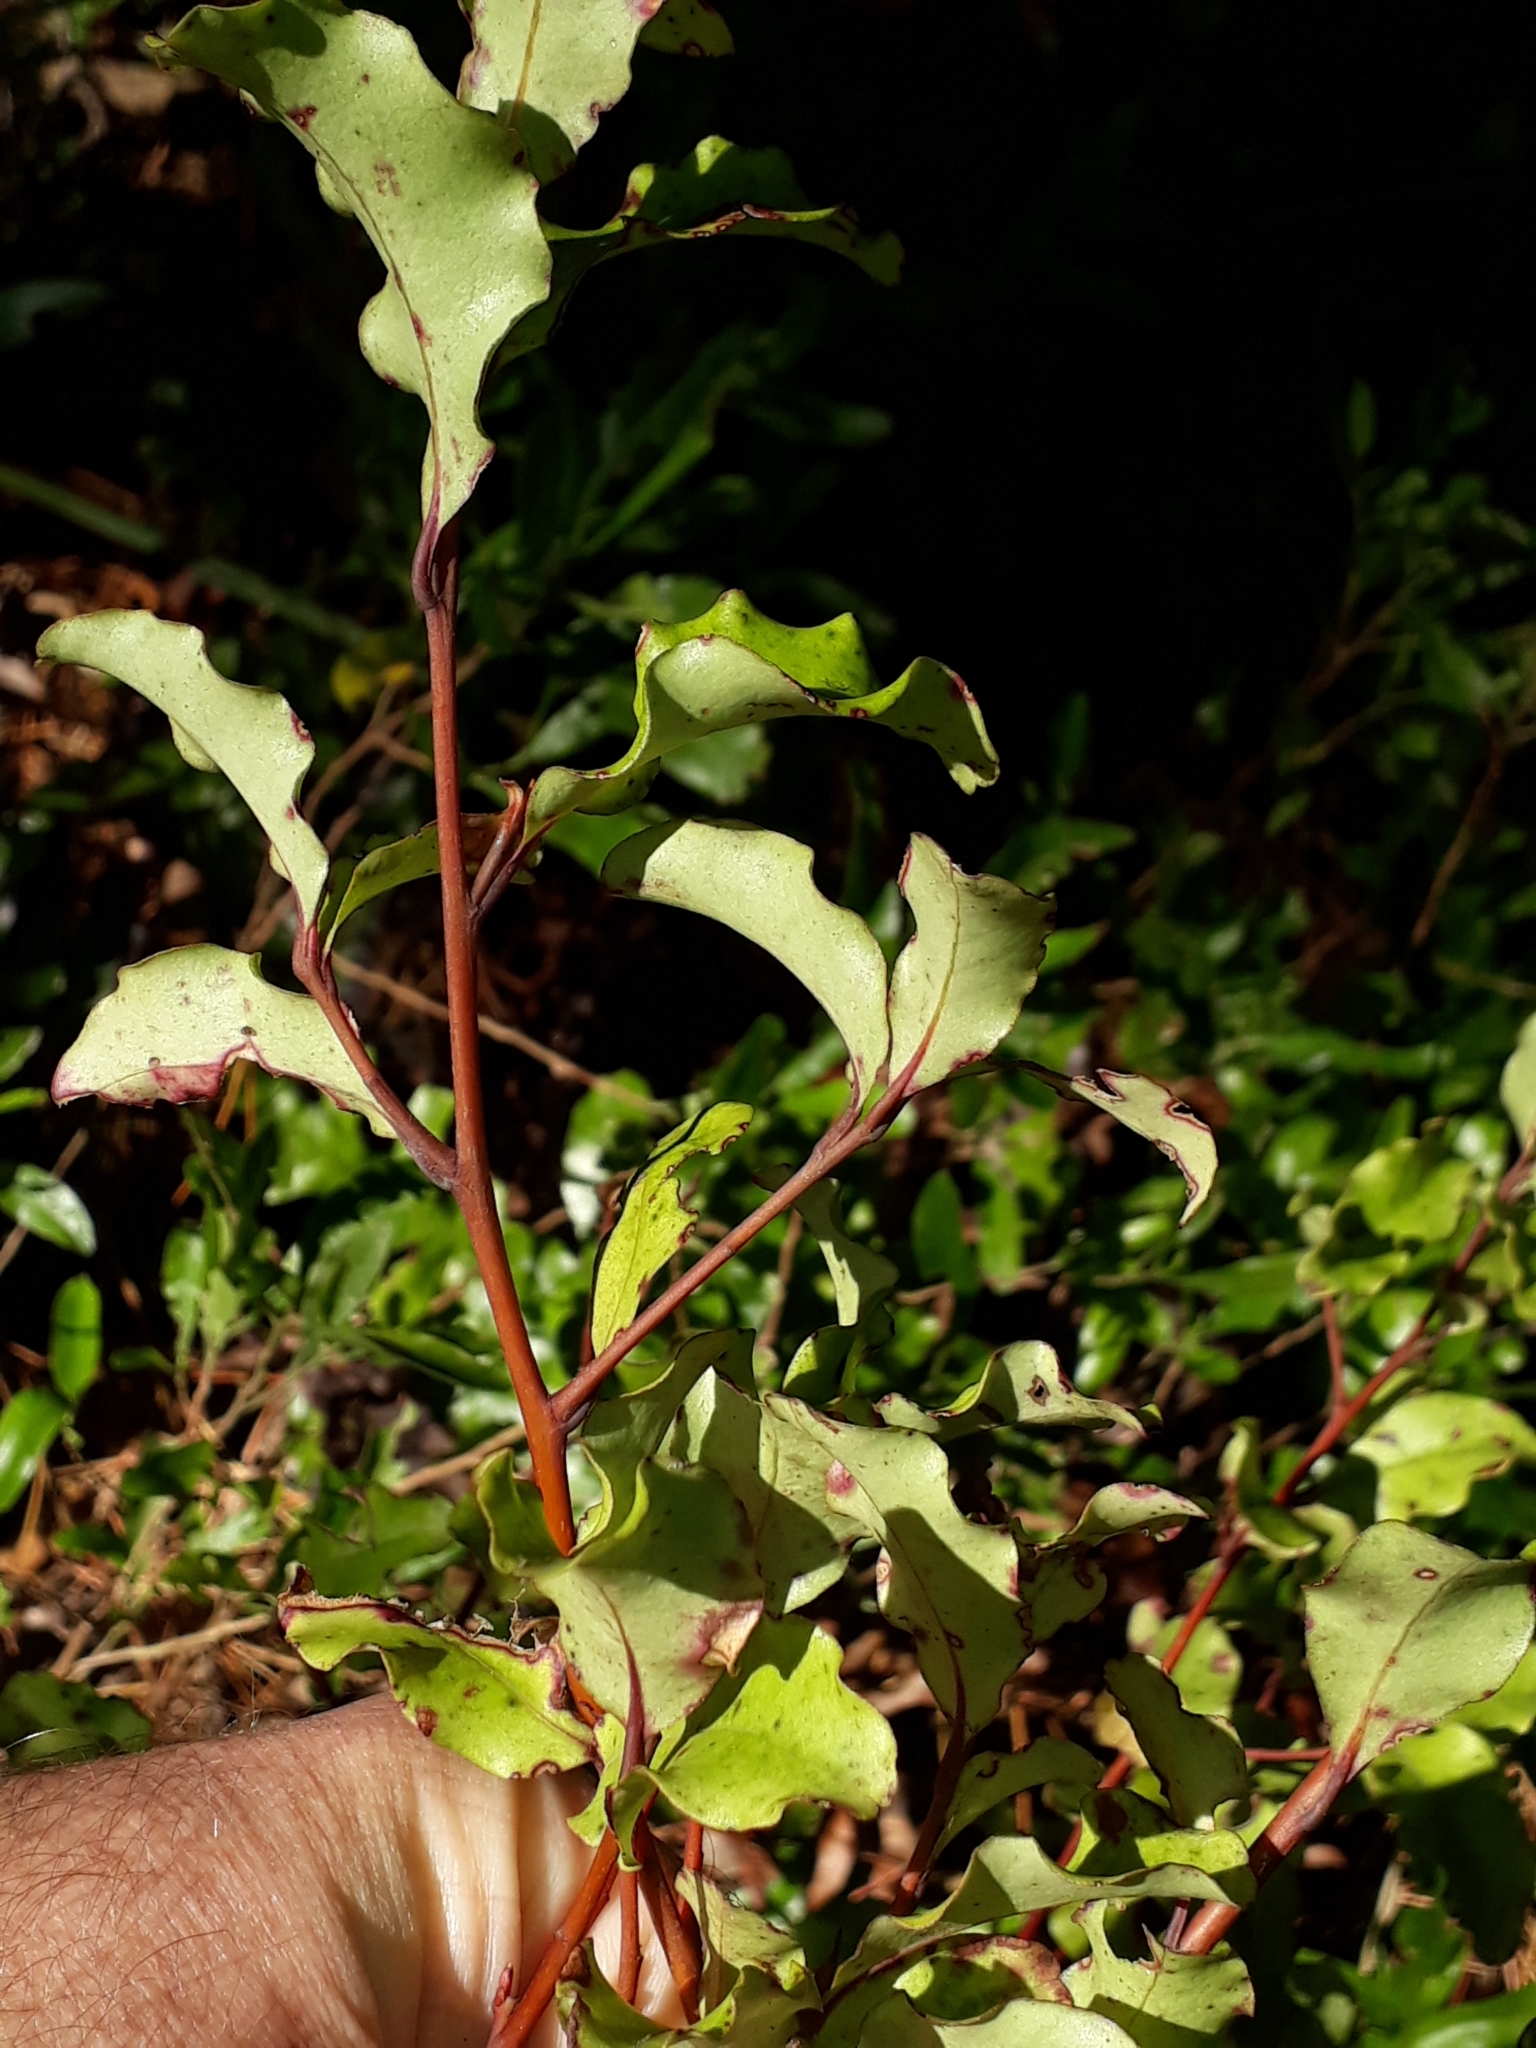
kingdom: Plantae
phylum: Tracheophyta
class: Magnoliopsida
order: Ericales
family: Primulaceae
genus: Myrsine
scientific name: Myrsine australis
